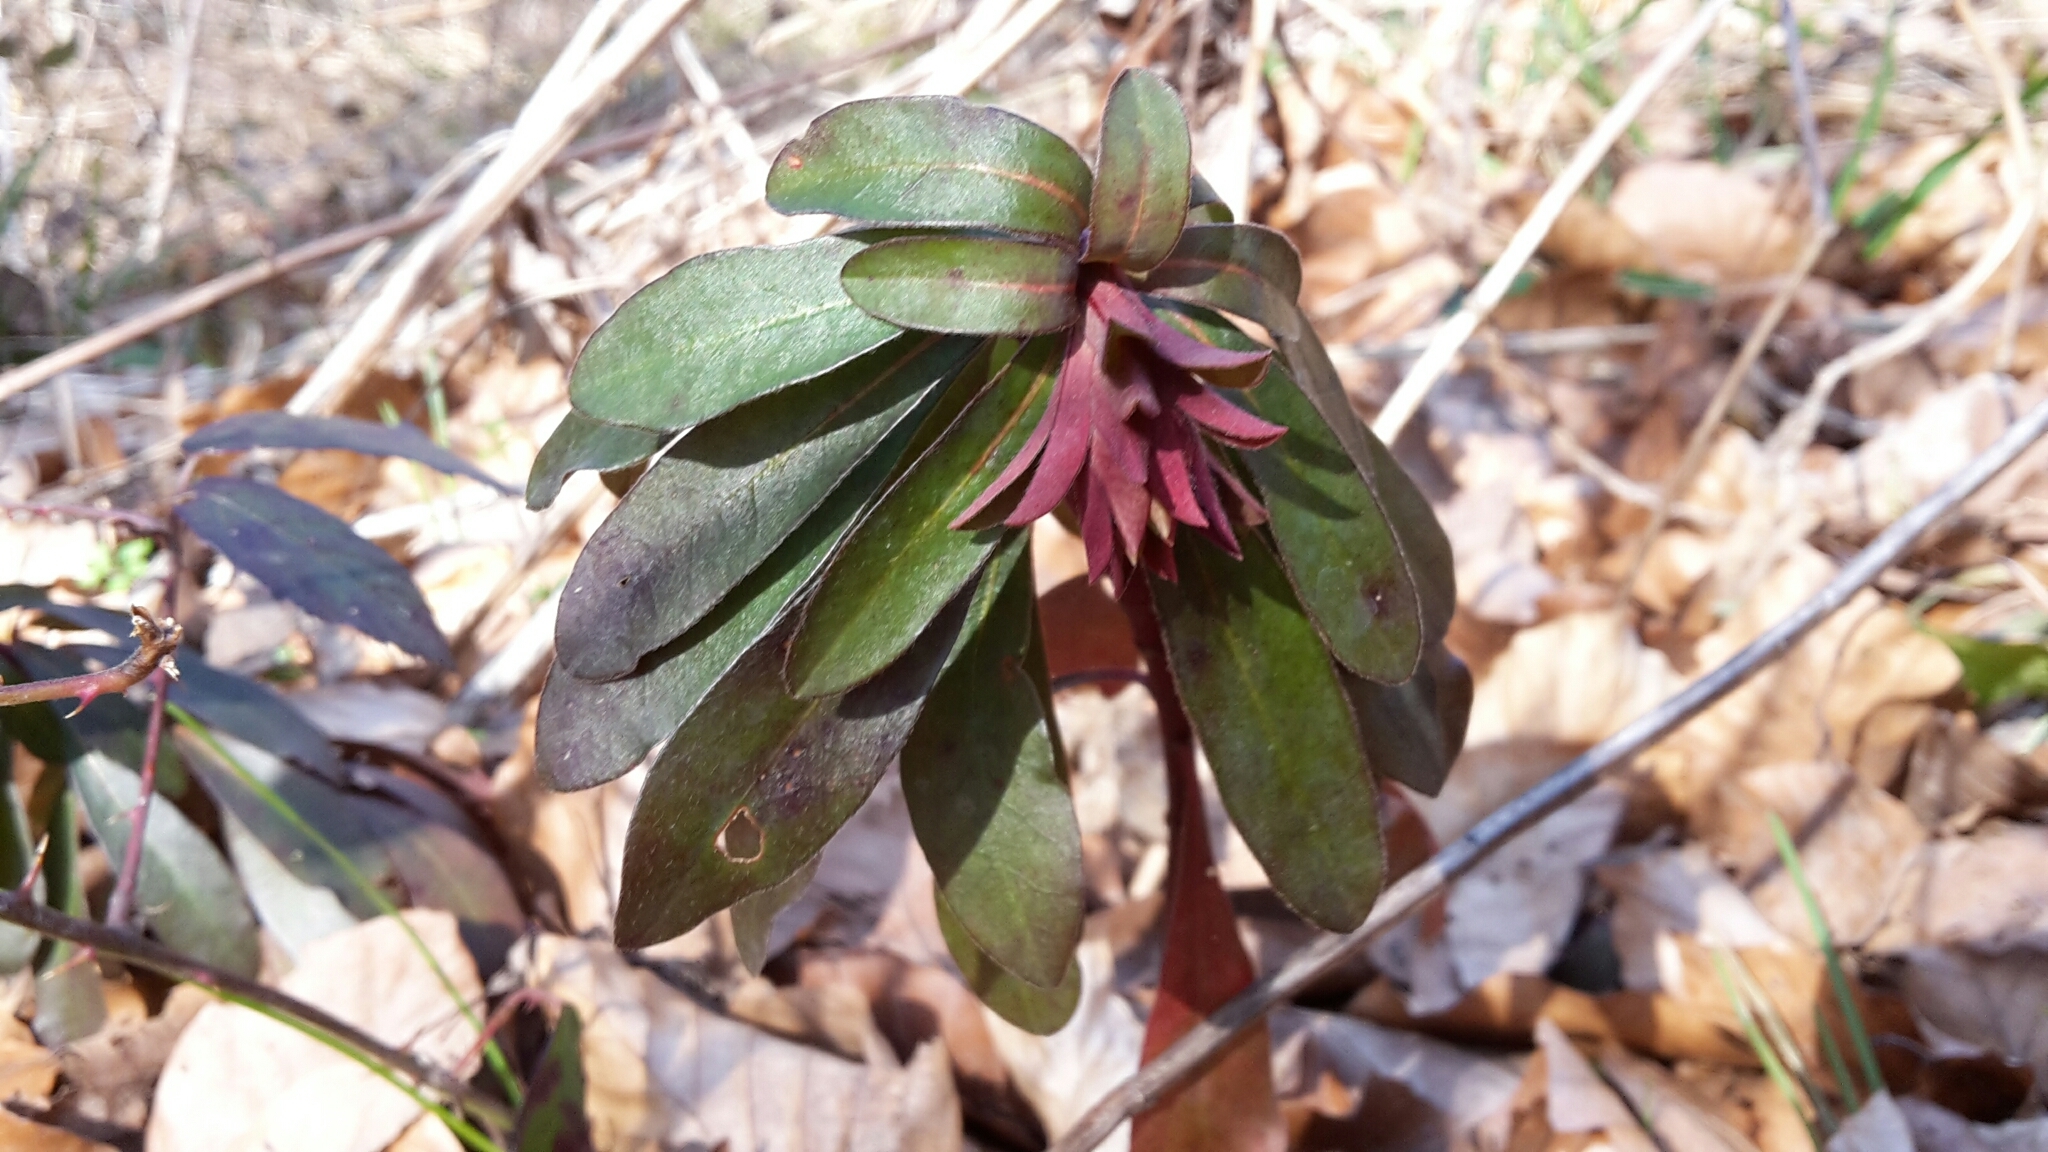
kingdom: Plantae
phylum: Tracheophyta
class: Magnoliopsida
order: Malpighiales
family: Euphorbiaceae
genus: Euphorbia
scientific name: Euphorbia amygdaloides
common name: Wood spurge
